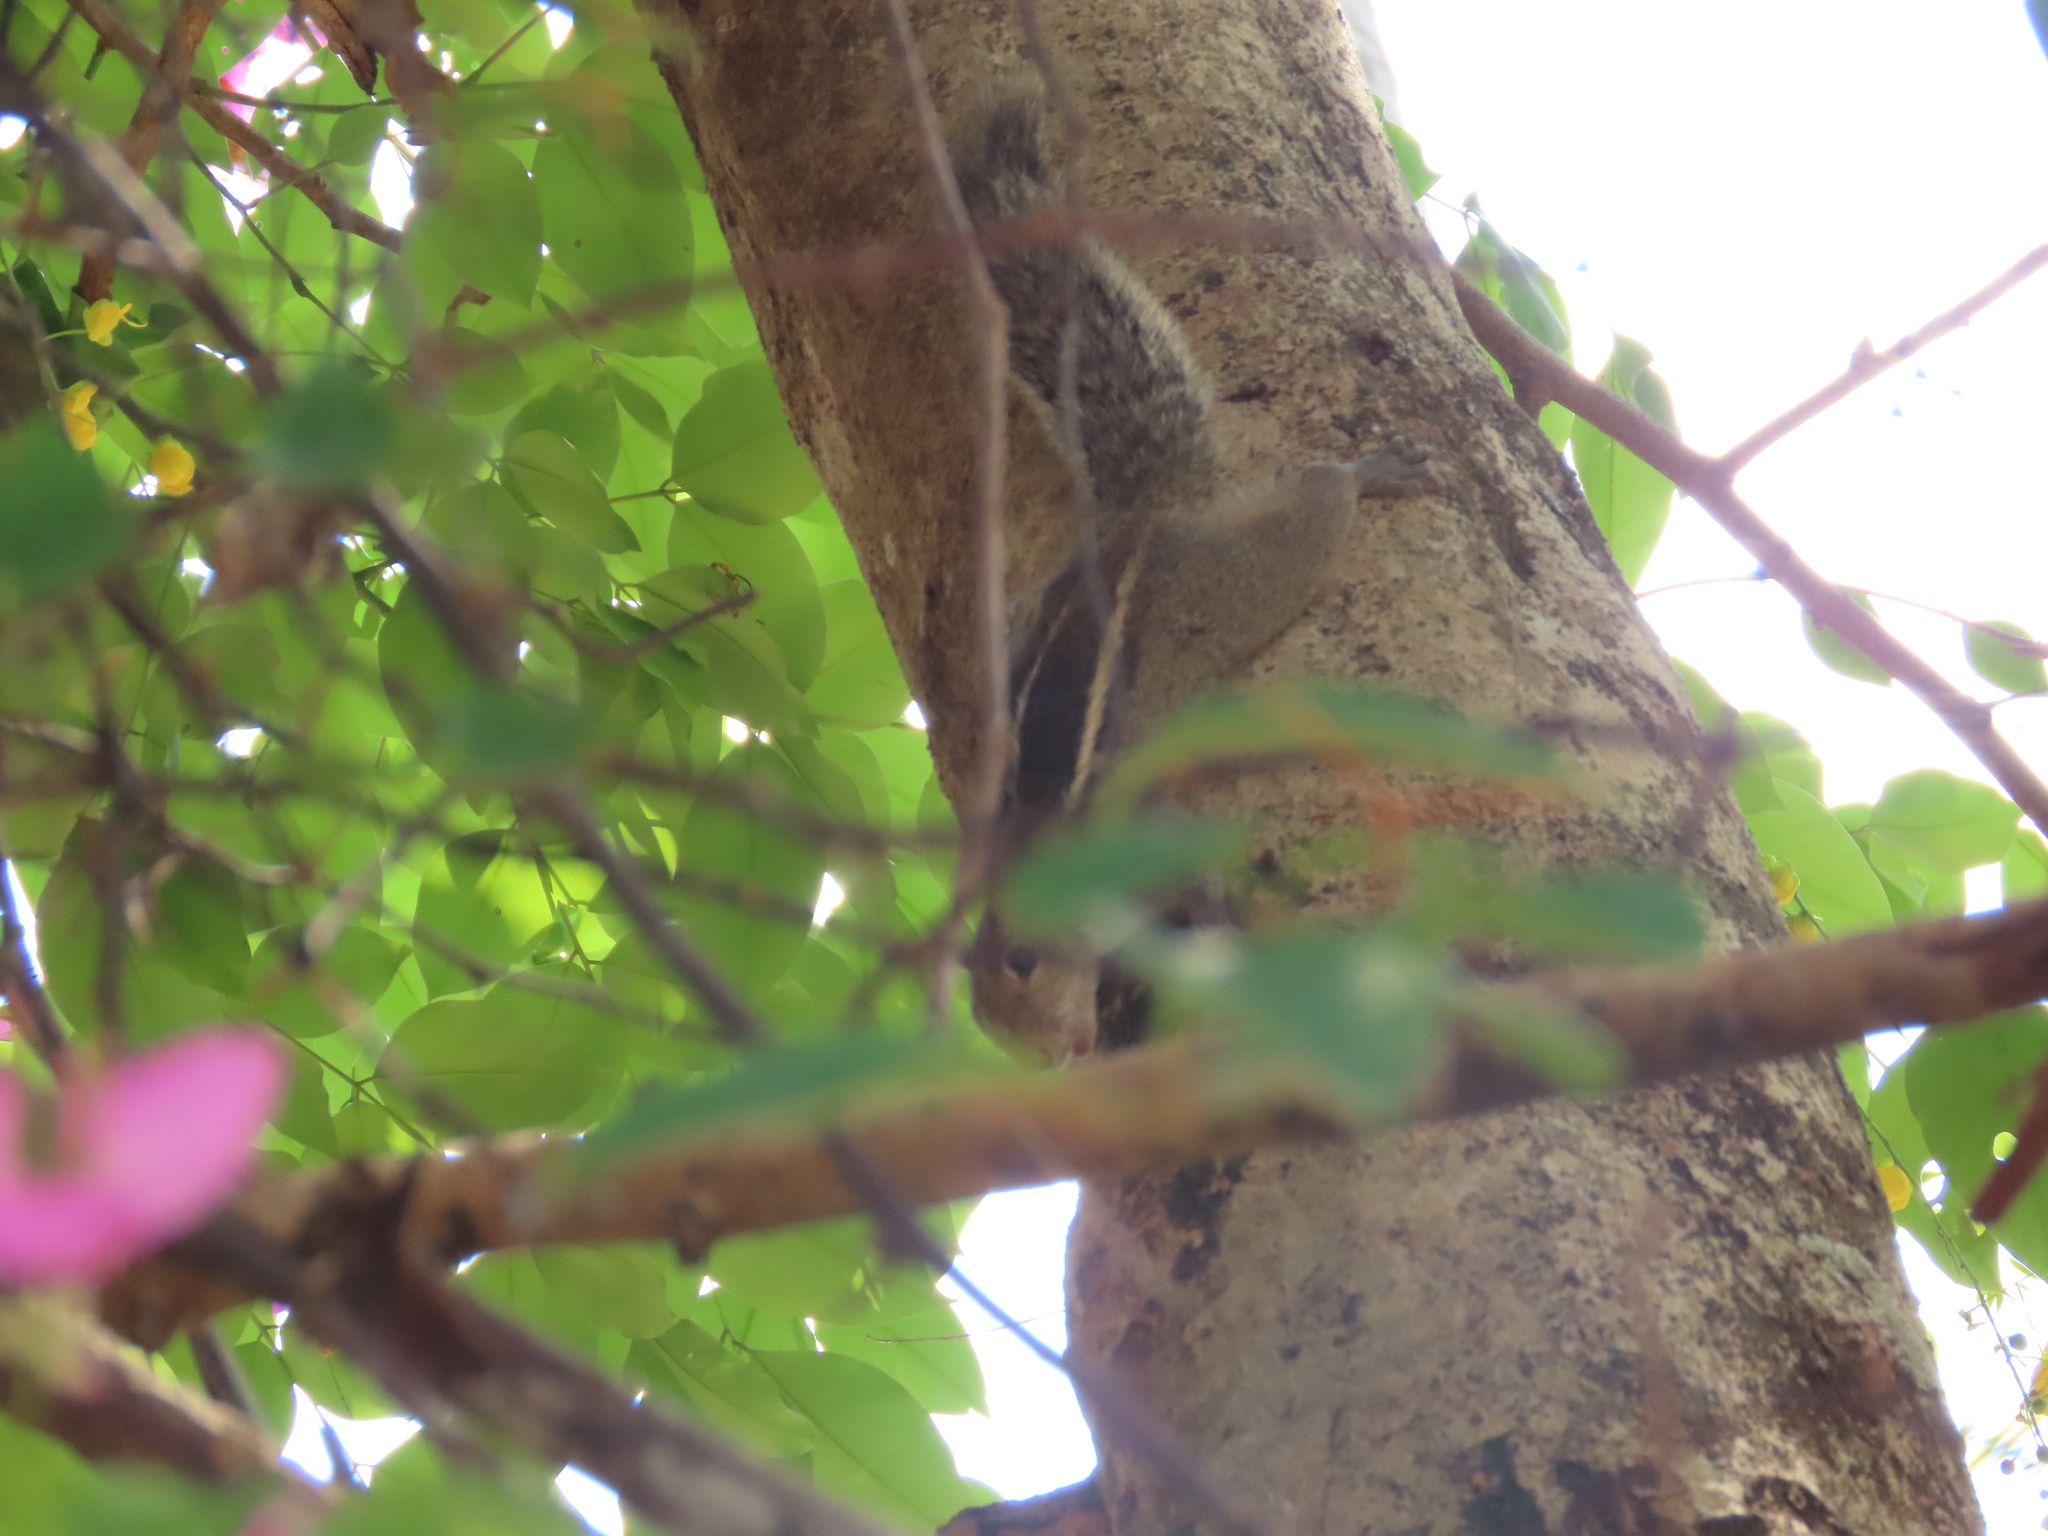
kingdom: Animalia
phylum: Chordata
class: Mammalia
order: Rodentia
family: Sciuridae
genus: Funambulus
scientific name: Funambulus tristriatus
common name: Jungle palm squirrel
